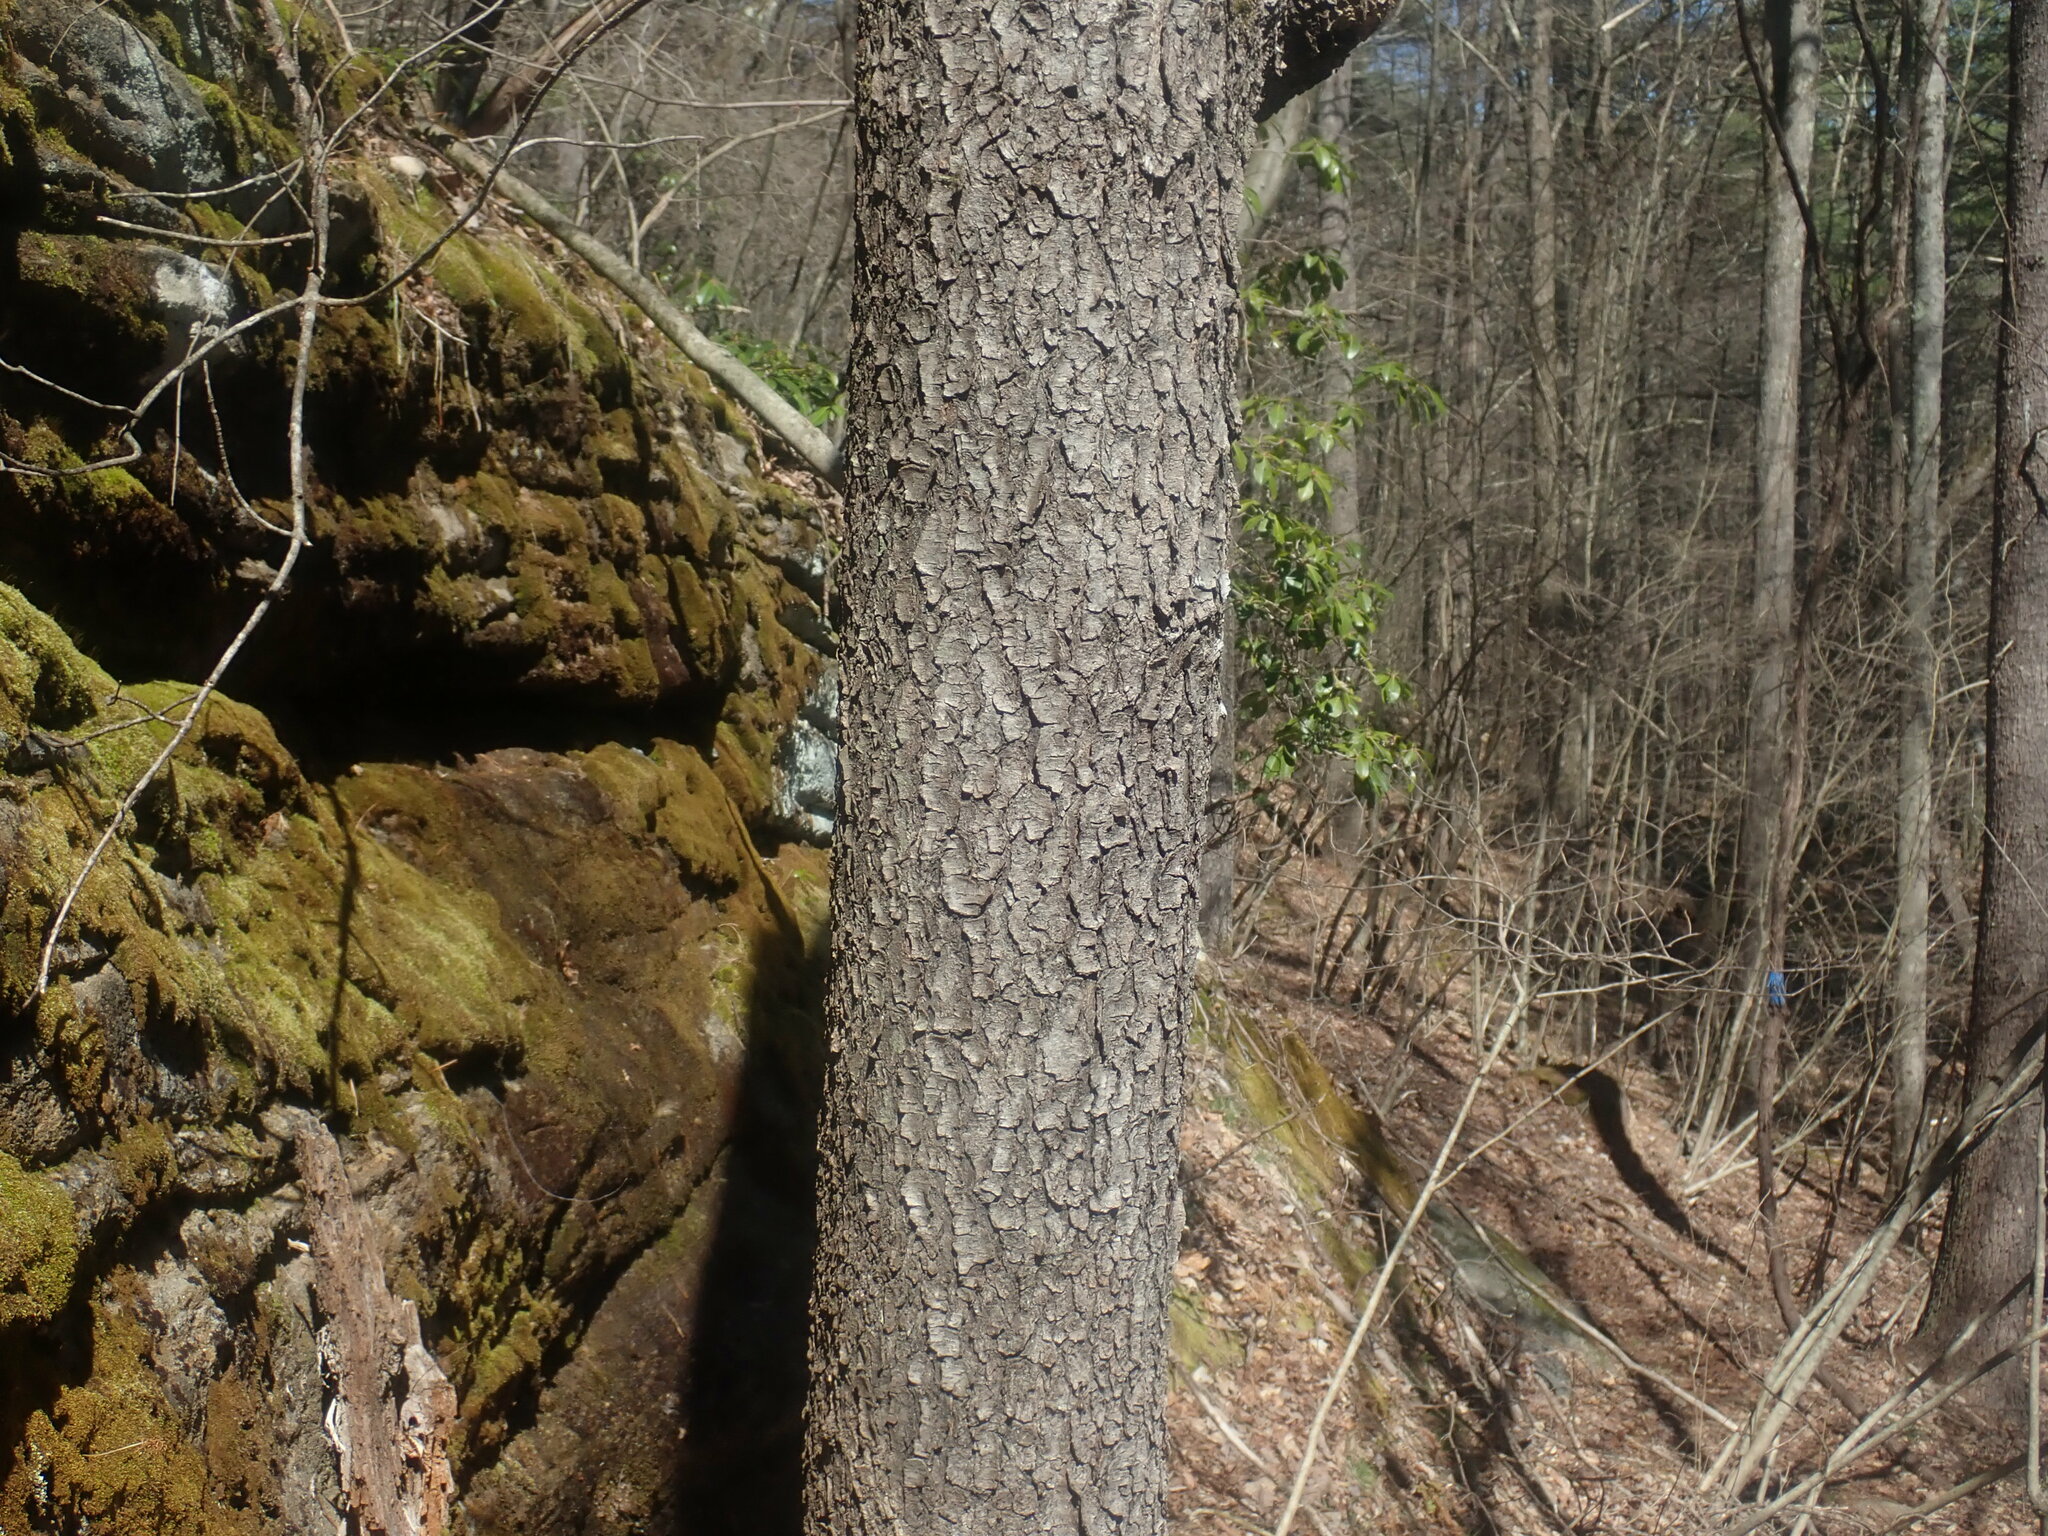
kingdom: Plantae
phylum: Tracheophyta
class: Magnoliopsida
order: Rosales
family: Rosaceae
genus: Prunus
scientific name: Prunus serotina
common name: Black cherry
